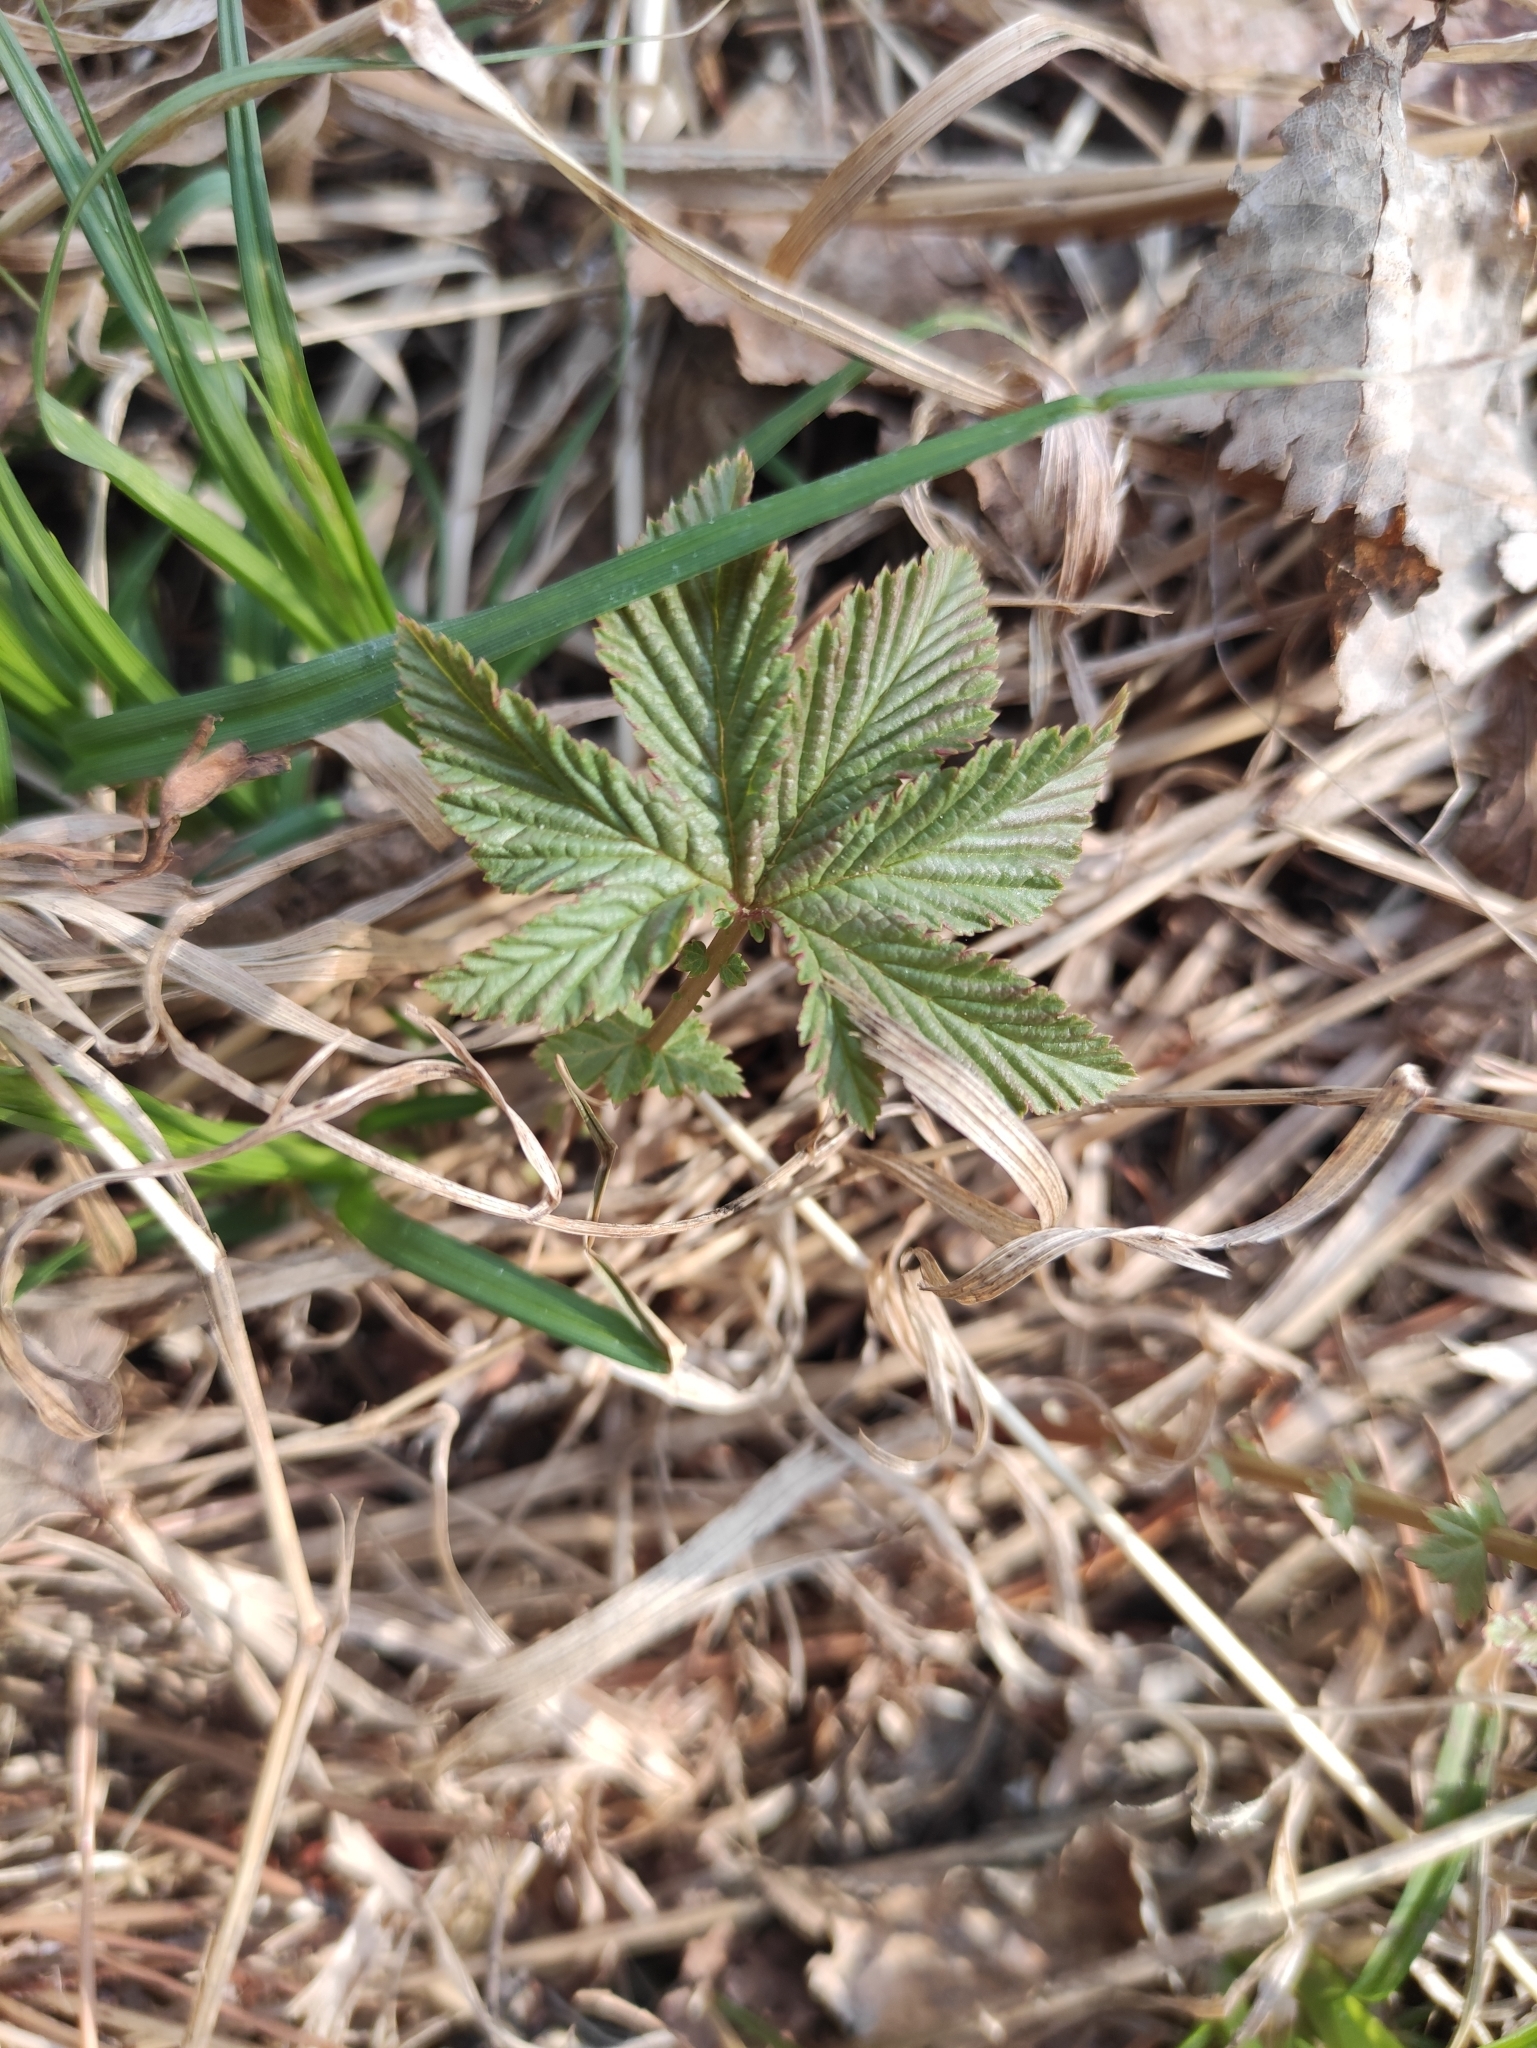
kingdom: Plantae
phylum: Tracheophyta
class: Magnoliopsida
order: Rosales
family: Rosaceae
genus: Filipendula
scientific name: Filipendula digitata
